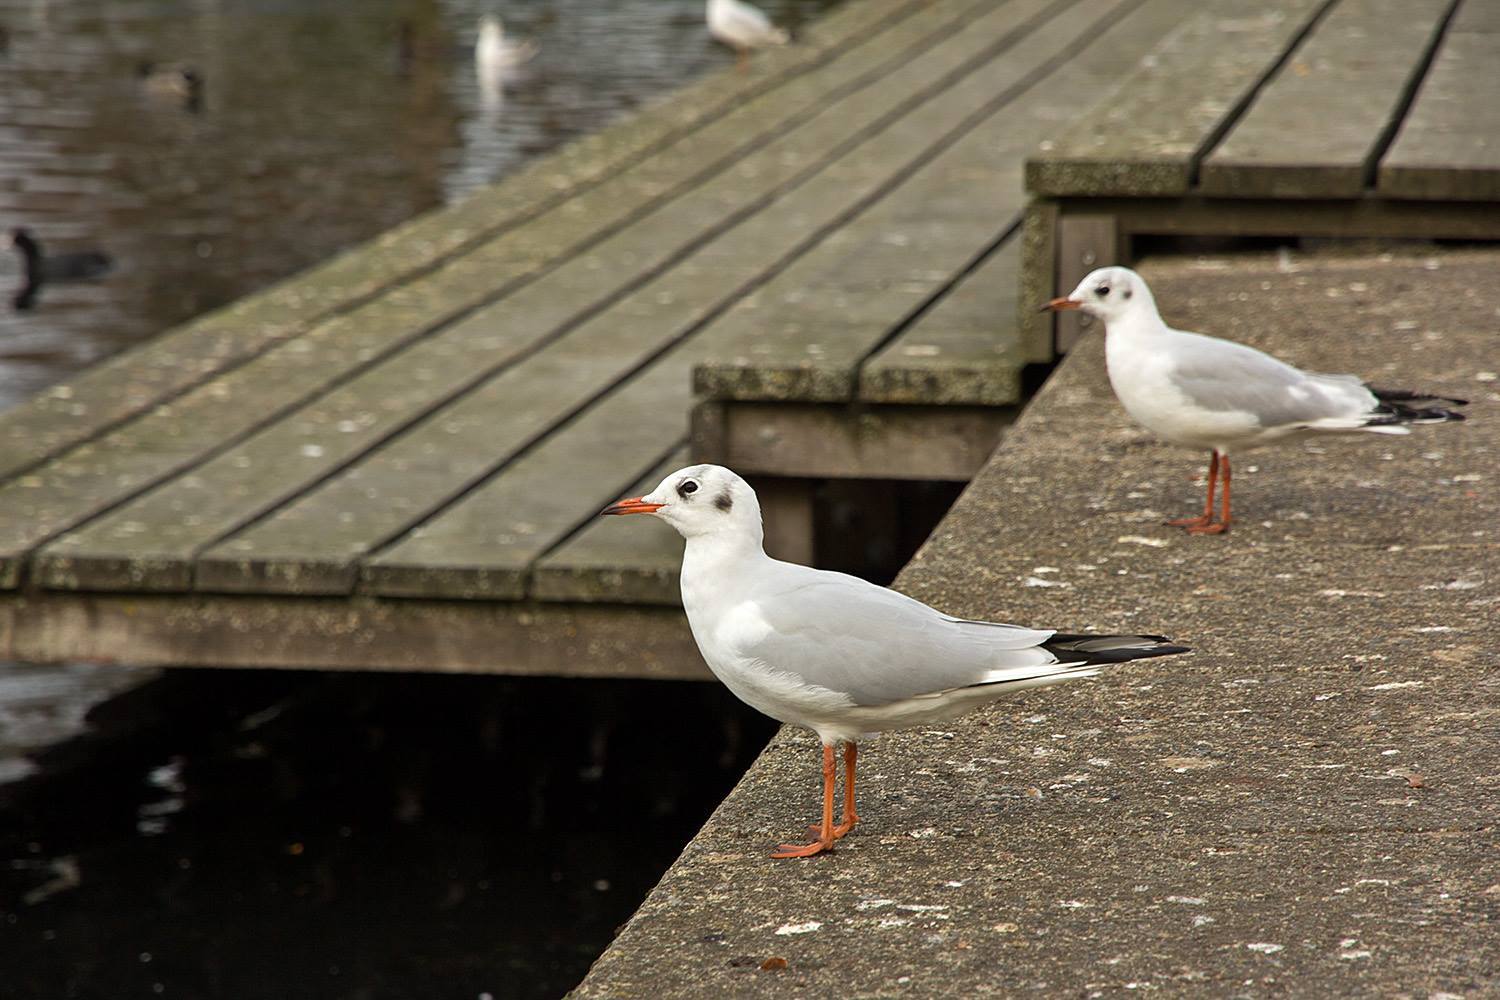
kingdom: Animalia
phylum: Chordata
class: Aves
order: Charadriiformes
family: Laridae
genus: Chroicocephalus
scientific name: Chroicocephalus ridibundus
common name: Black-headed gull
